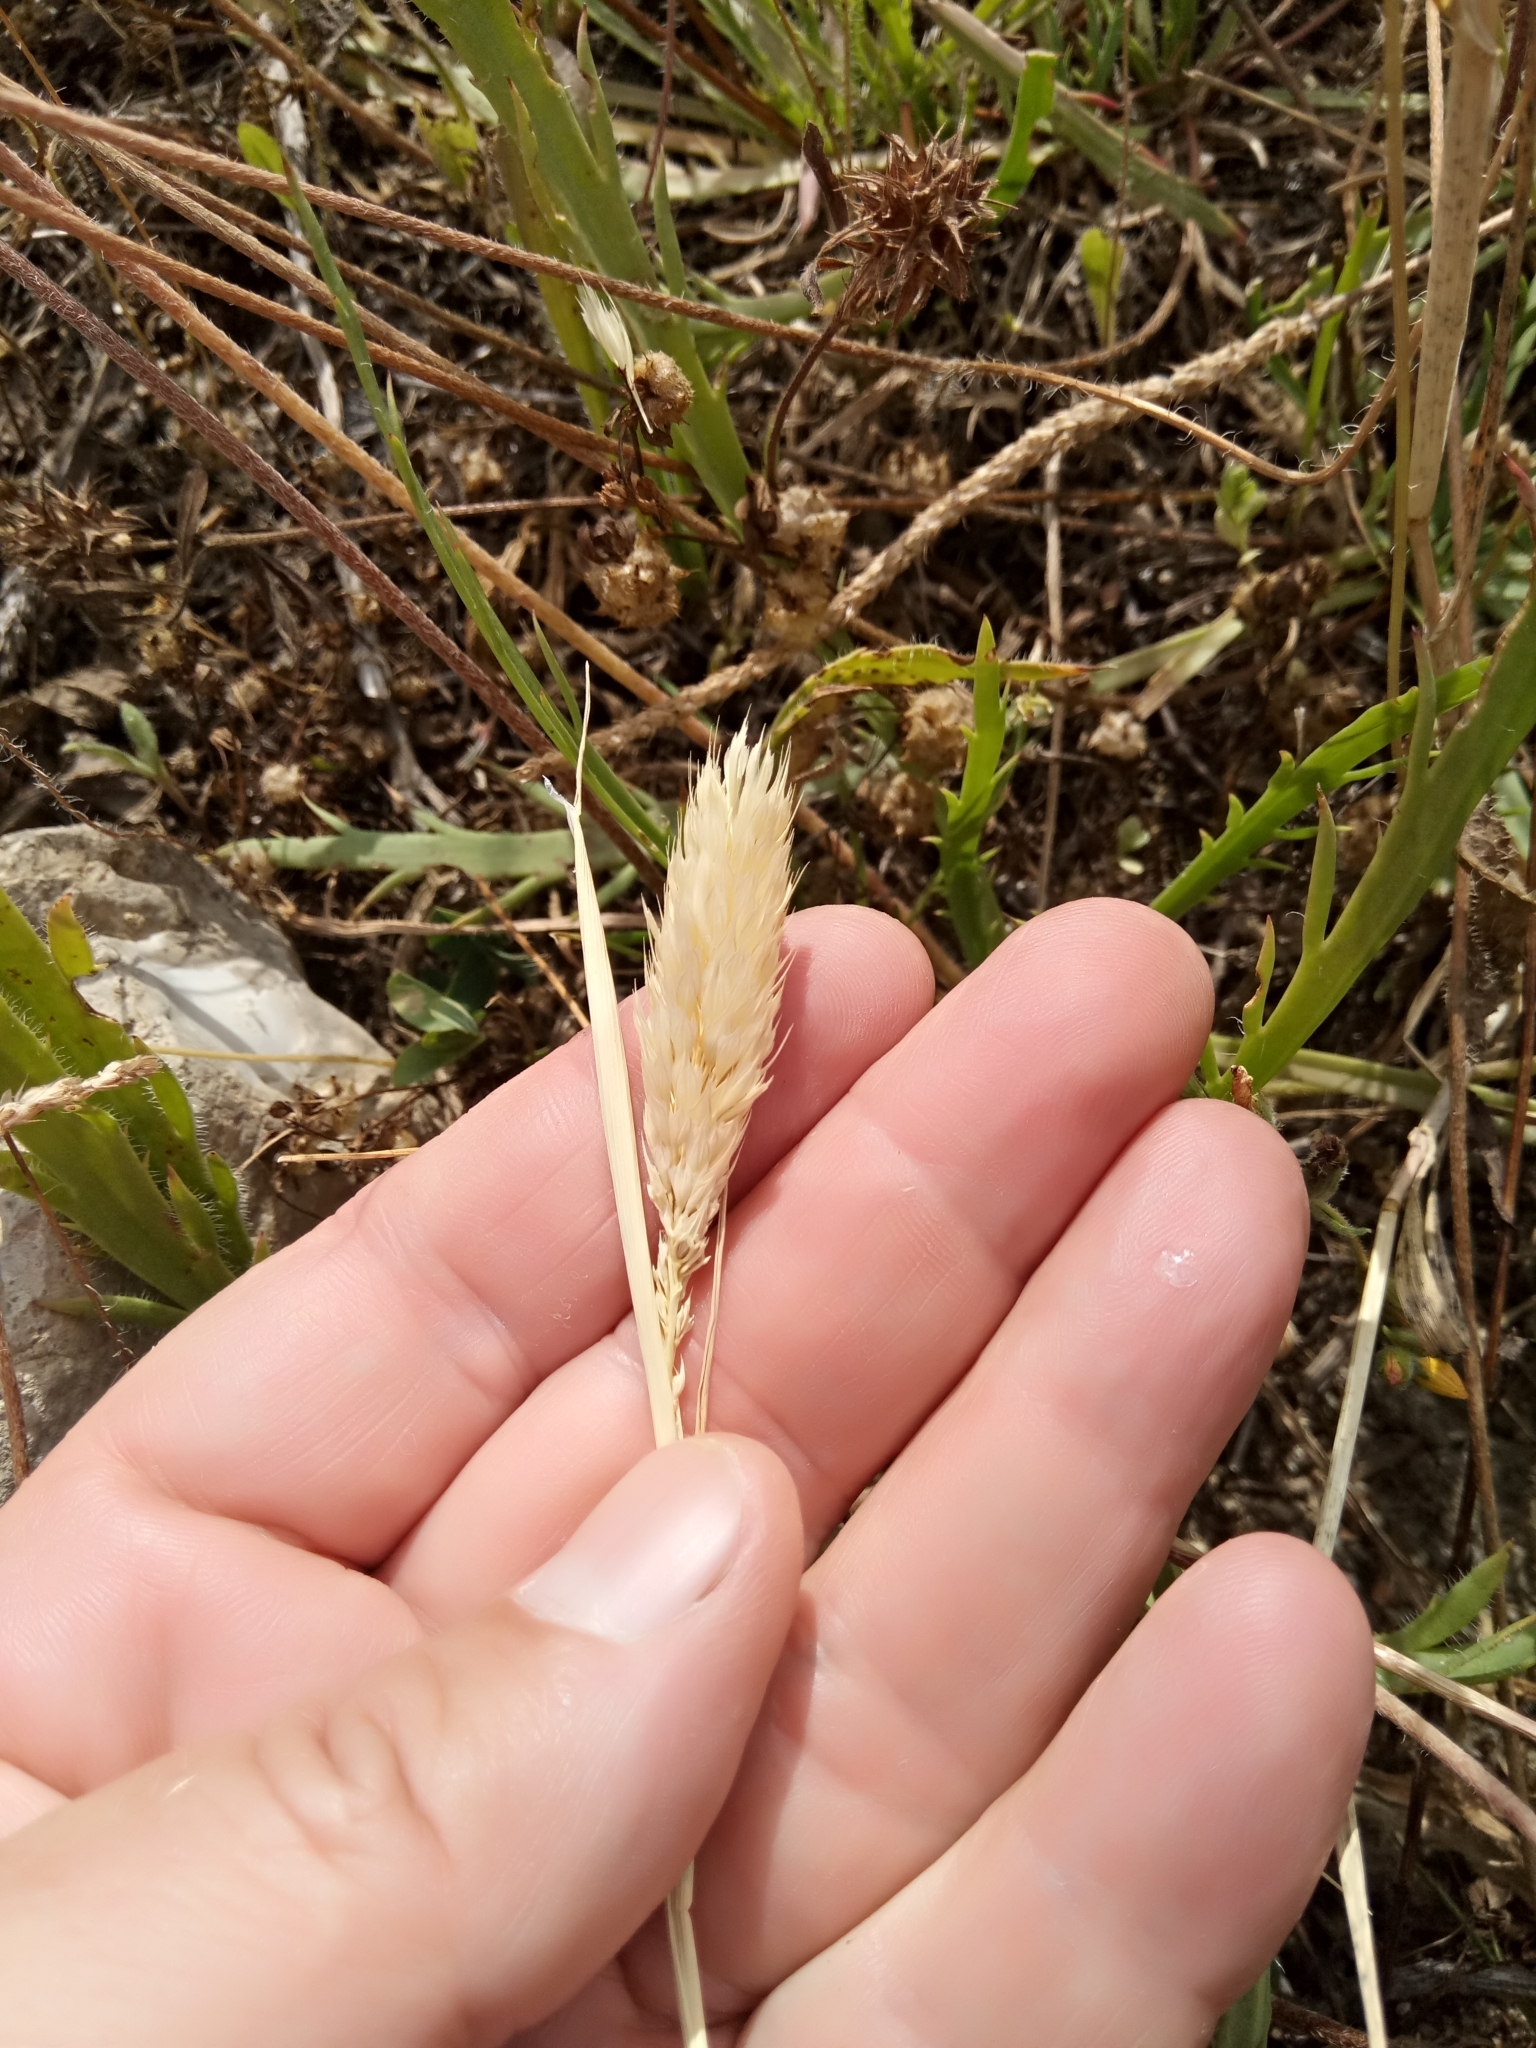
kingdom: Plantae
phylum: Tracheophyta
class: Liliopsida
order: Poales
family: Poaceae
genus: Phalaris
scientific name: Phalaris paradoxa
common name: Awned canary-grass
